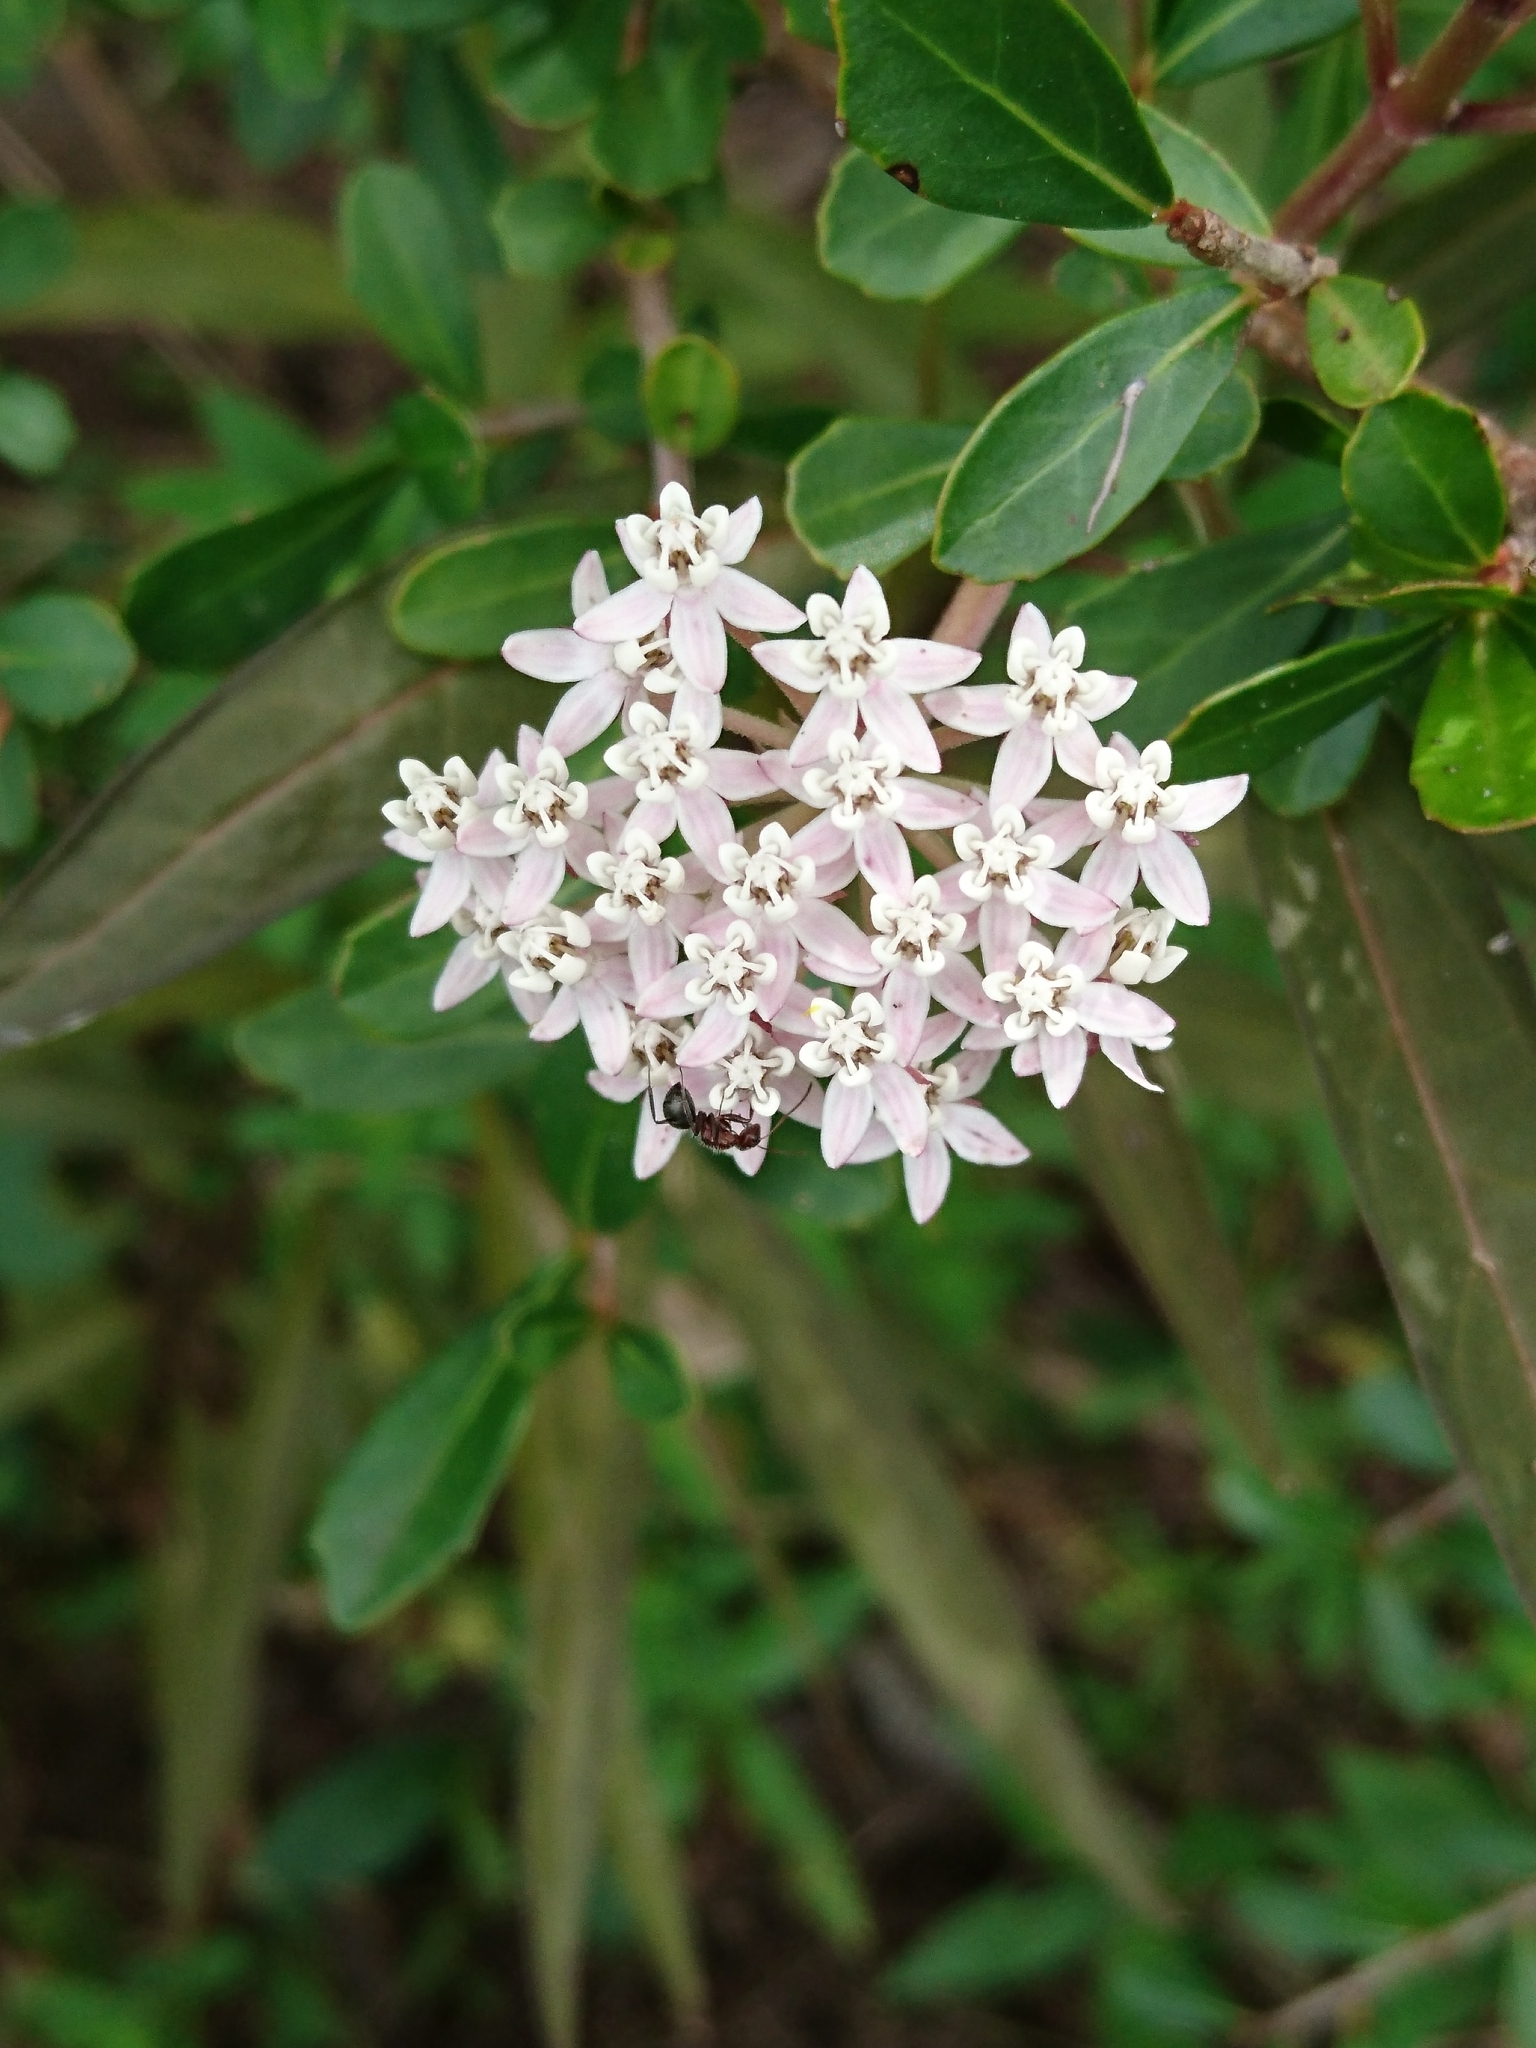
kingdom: Plantae
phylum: Tracheophyta
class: Magnoliopsida
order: Gentianales
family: Apocynaceae
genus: Asclepias
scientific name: Asclepias perennis
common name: Smooth-seed milkweed
